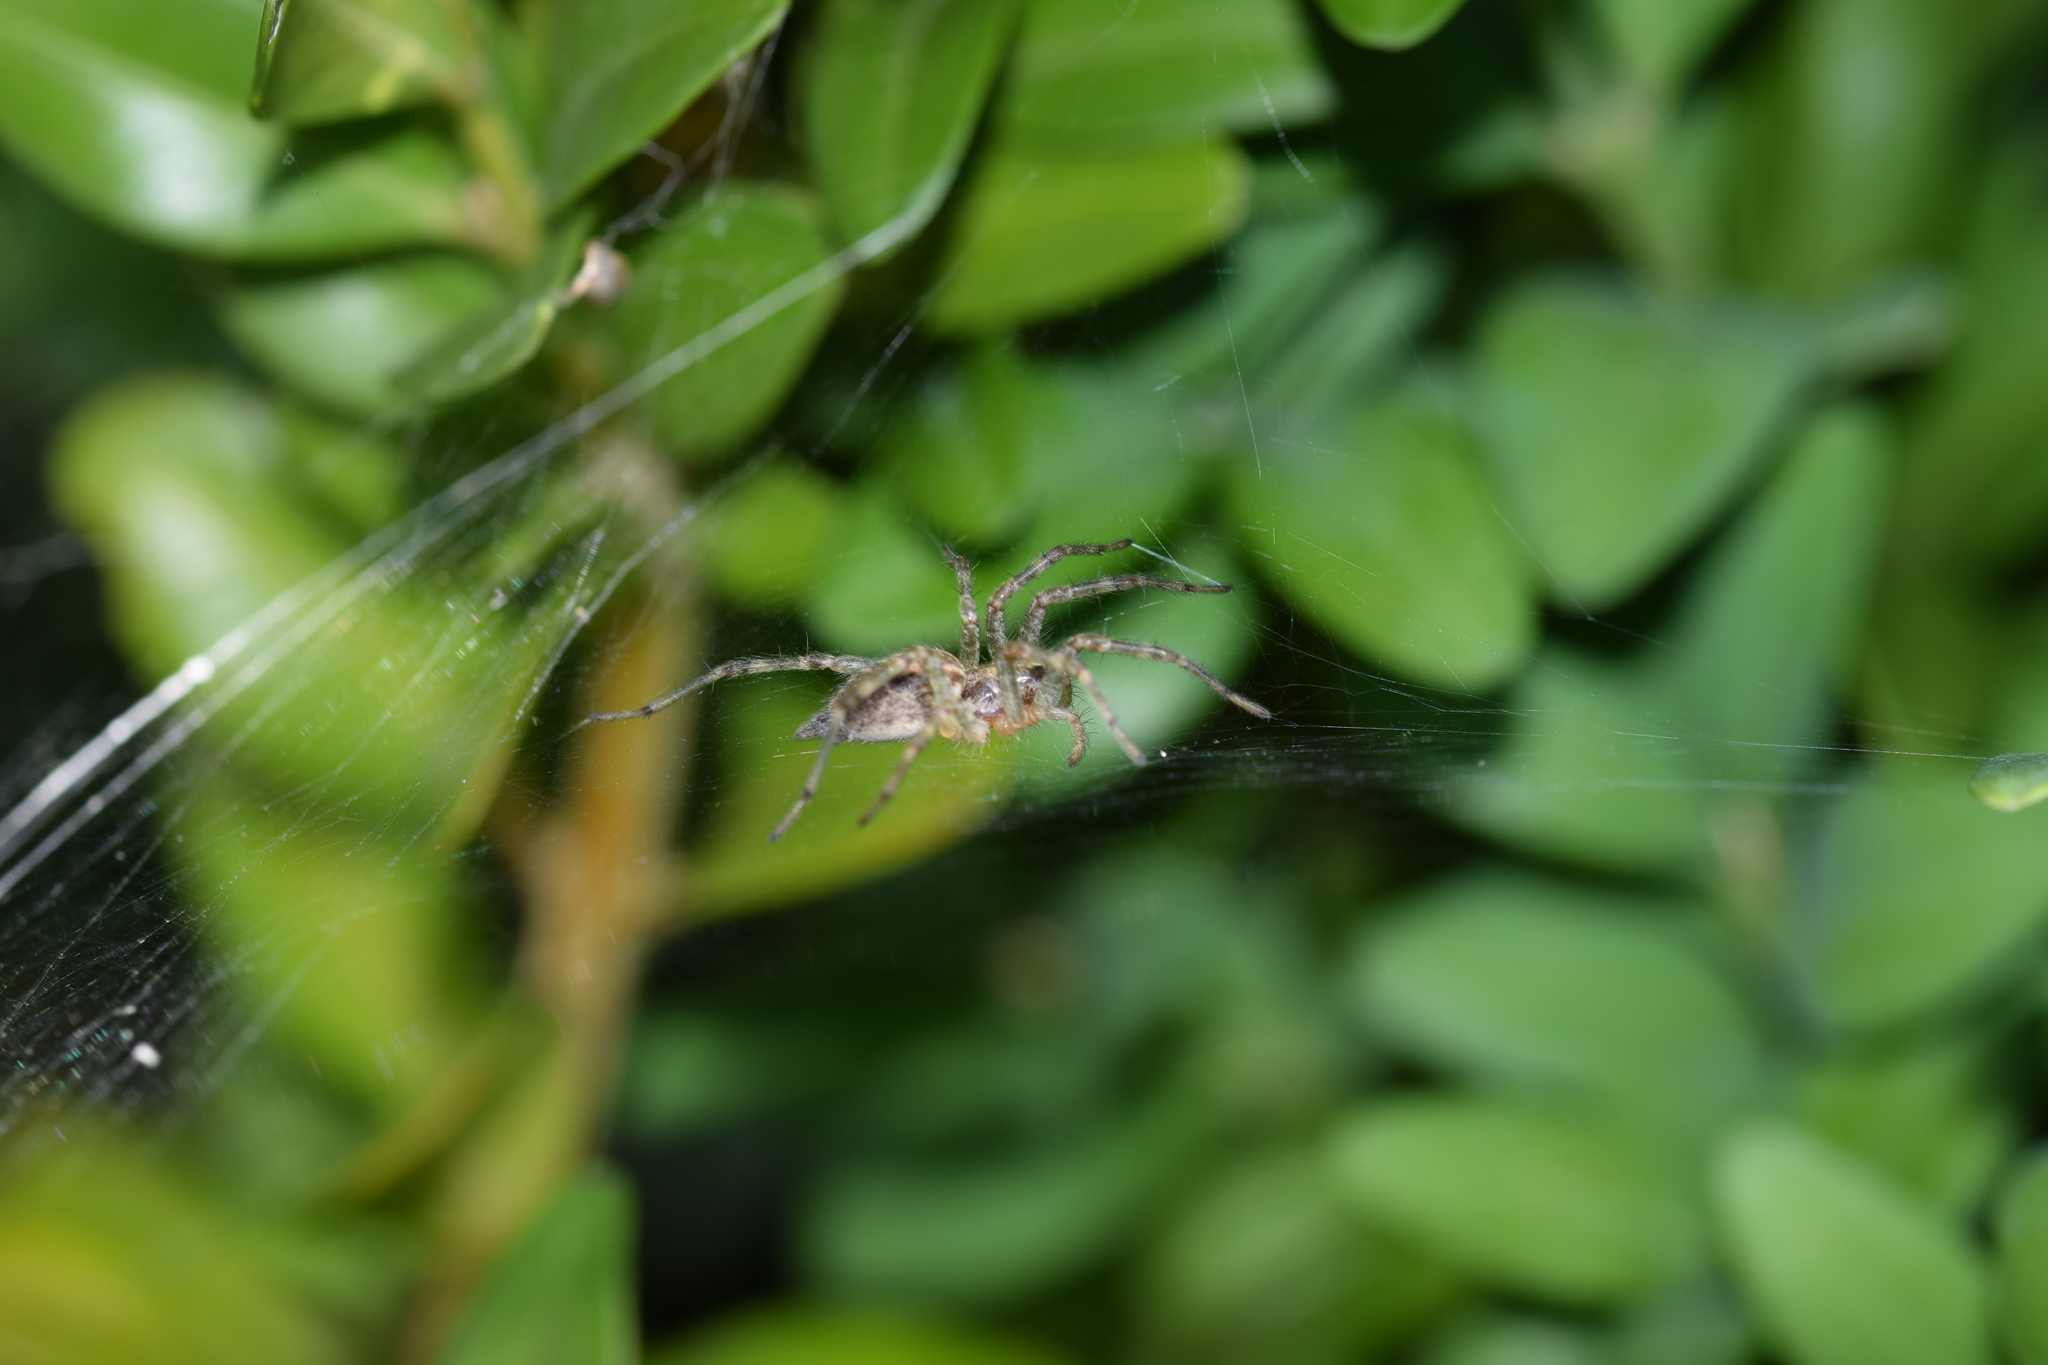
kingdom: Animalia
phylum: Arthropoda
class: Arachnida
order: Araneae
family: Agelenidae
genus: Allagelena
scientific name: Allagelena gracilens
